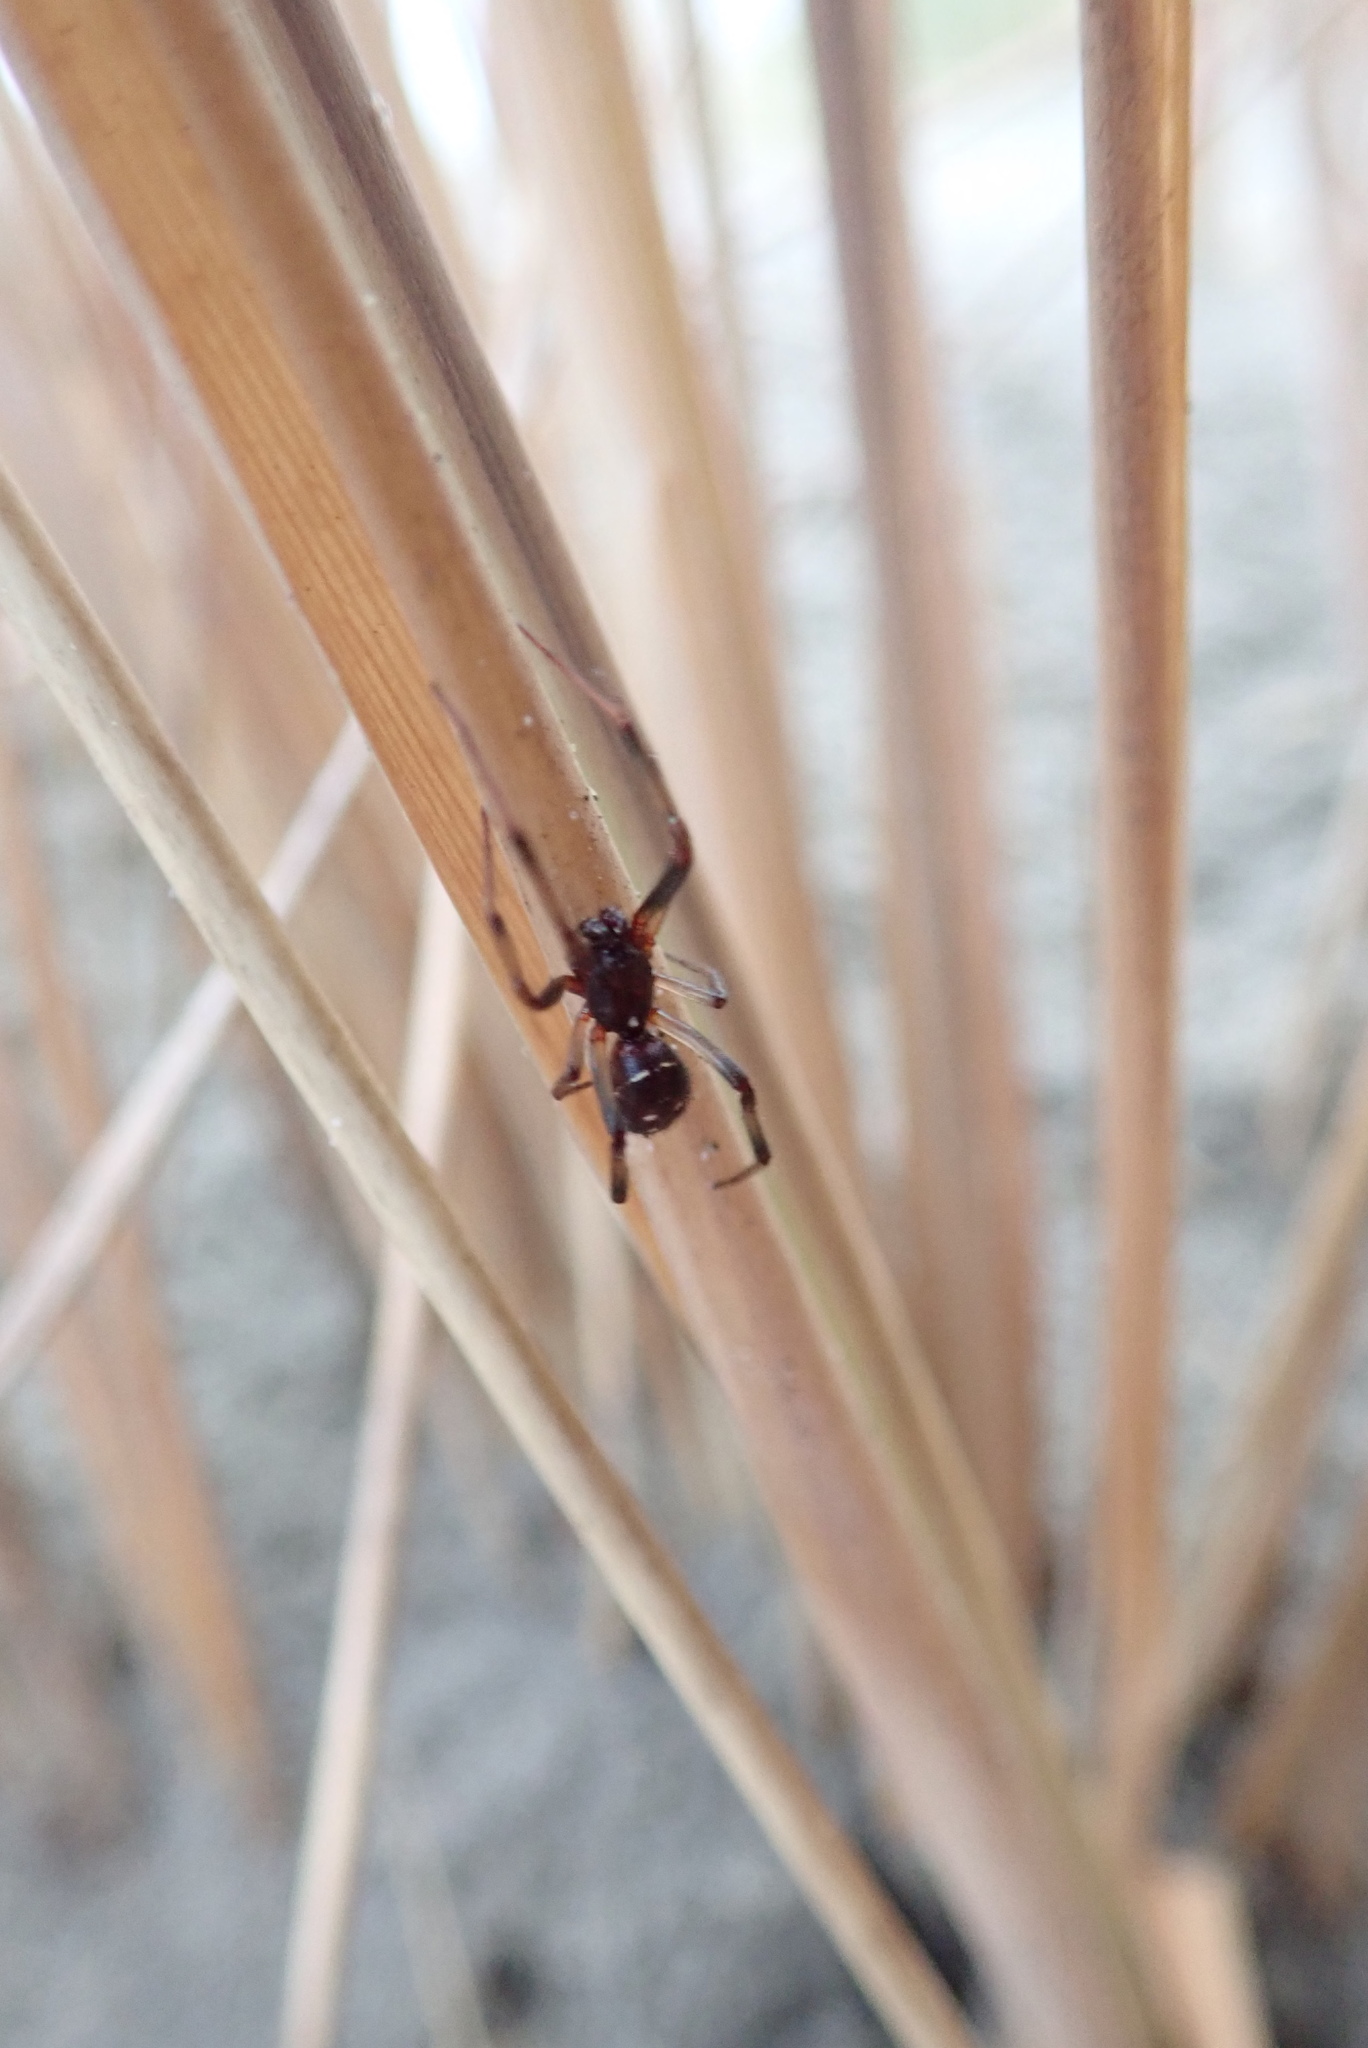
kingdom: Animalia
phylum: Arthropoda
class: Arachnida
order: Araneae
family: Theridiidae
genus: Steatoda
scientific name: Steatoda capensis
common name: Cobweb weaver
